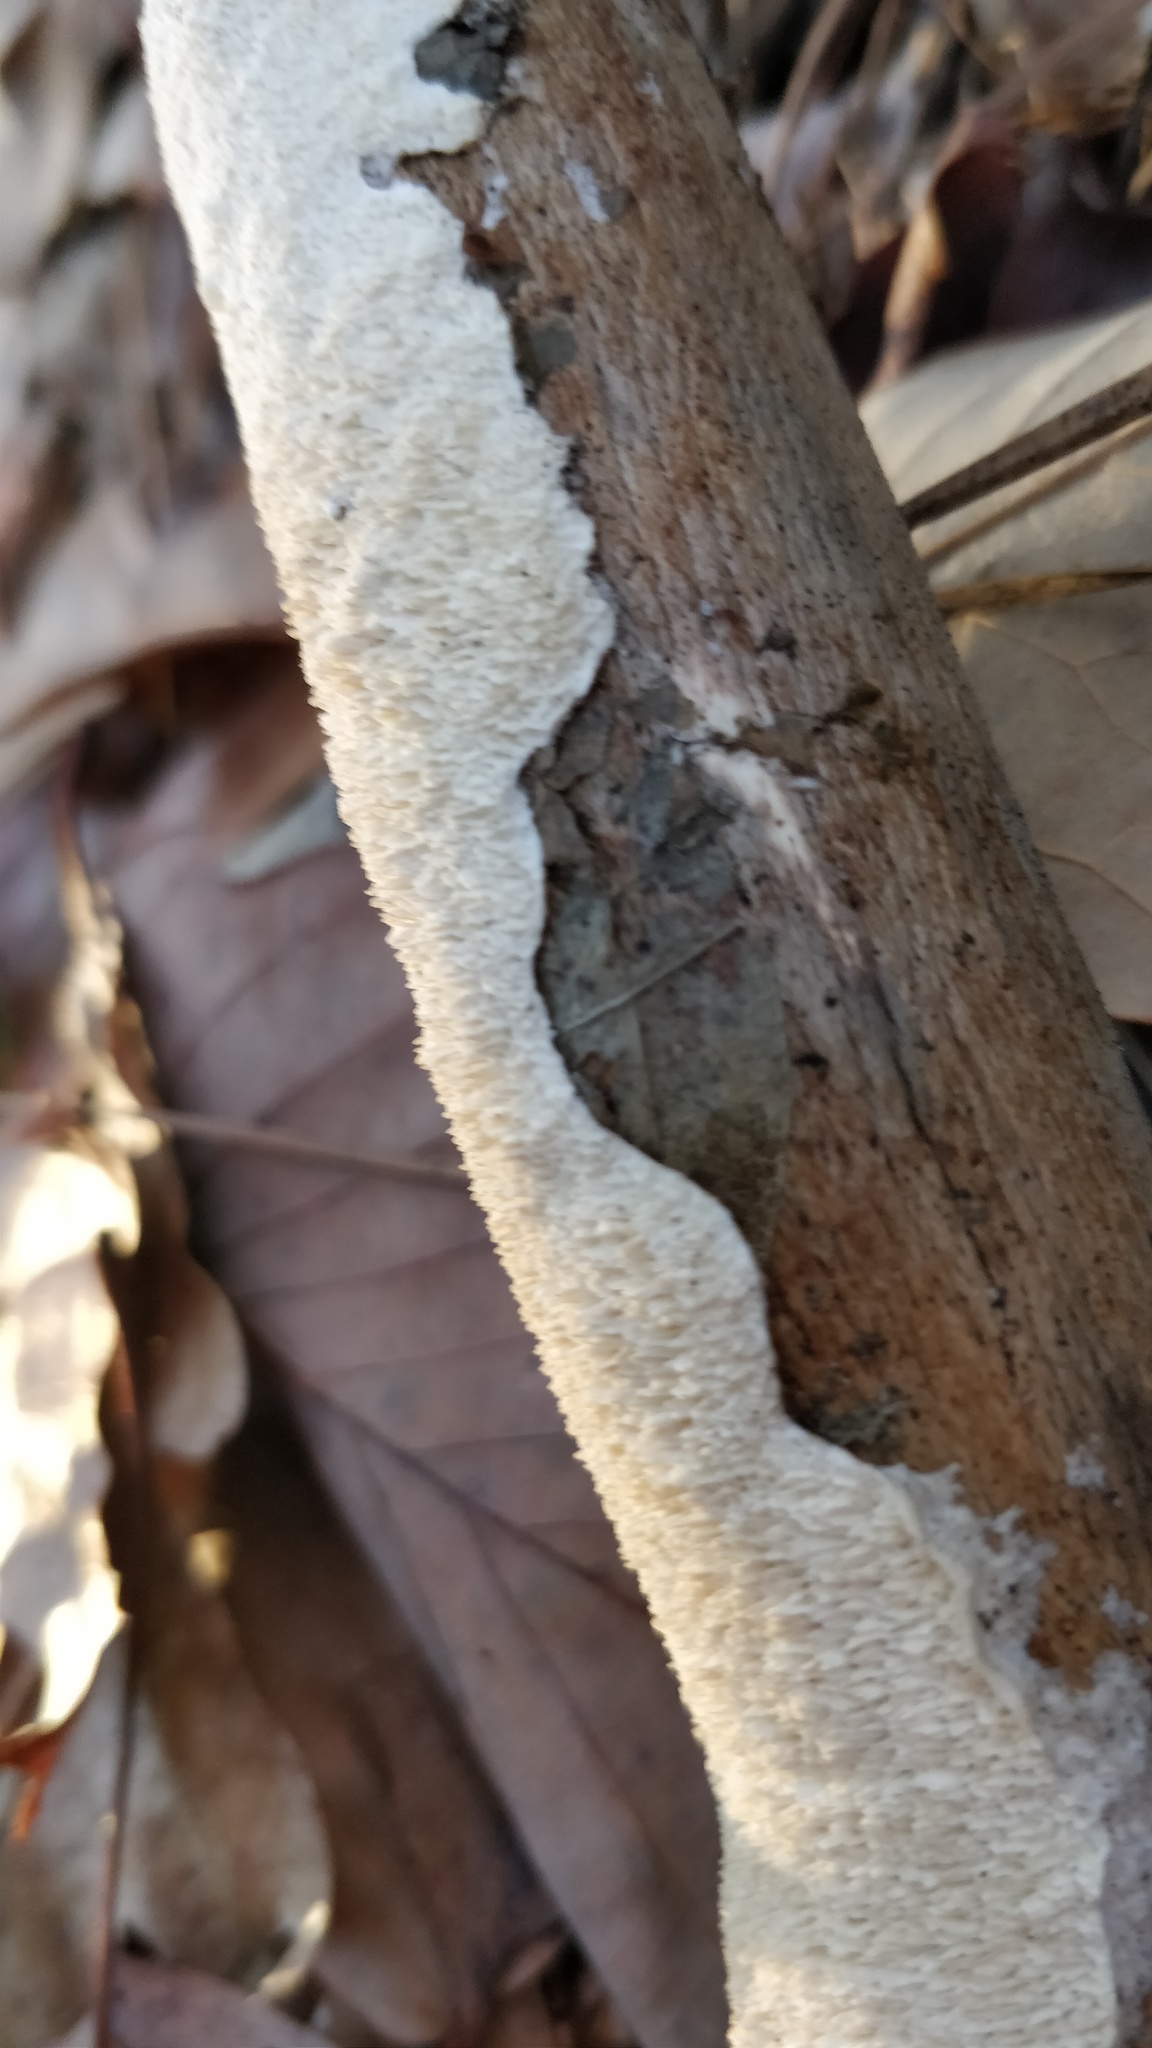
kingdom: Fungi
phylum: Basidiomycota
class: Agaricomycetes
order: Polyporales
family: Irpicaceae
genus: Irpex
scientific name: Irpex lacteus
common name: Milk-white toothed polypore
